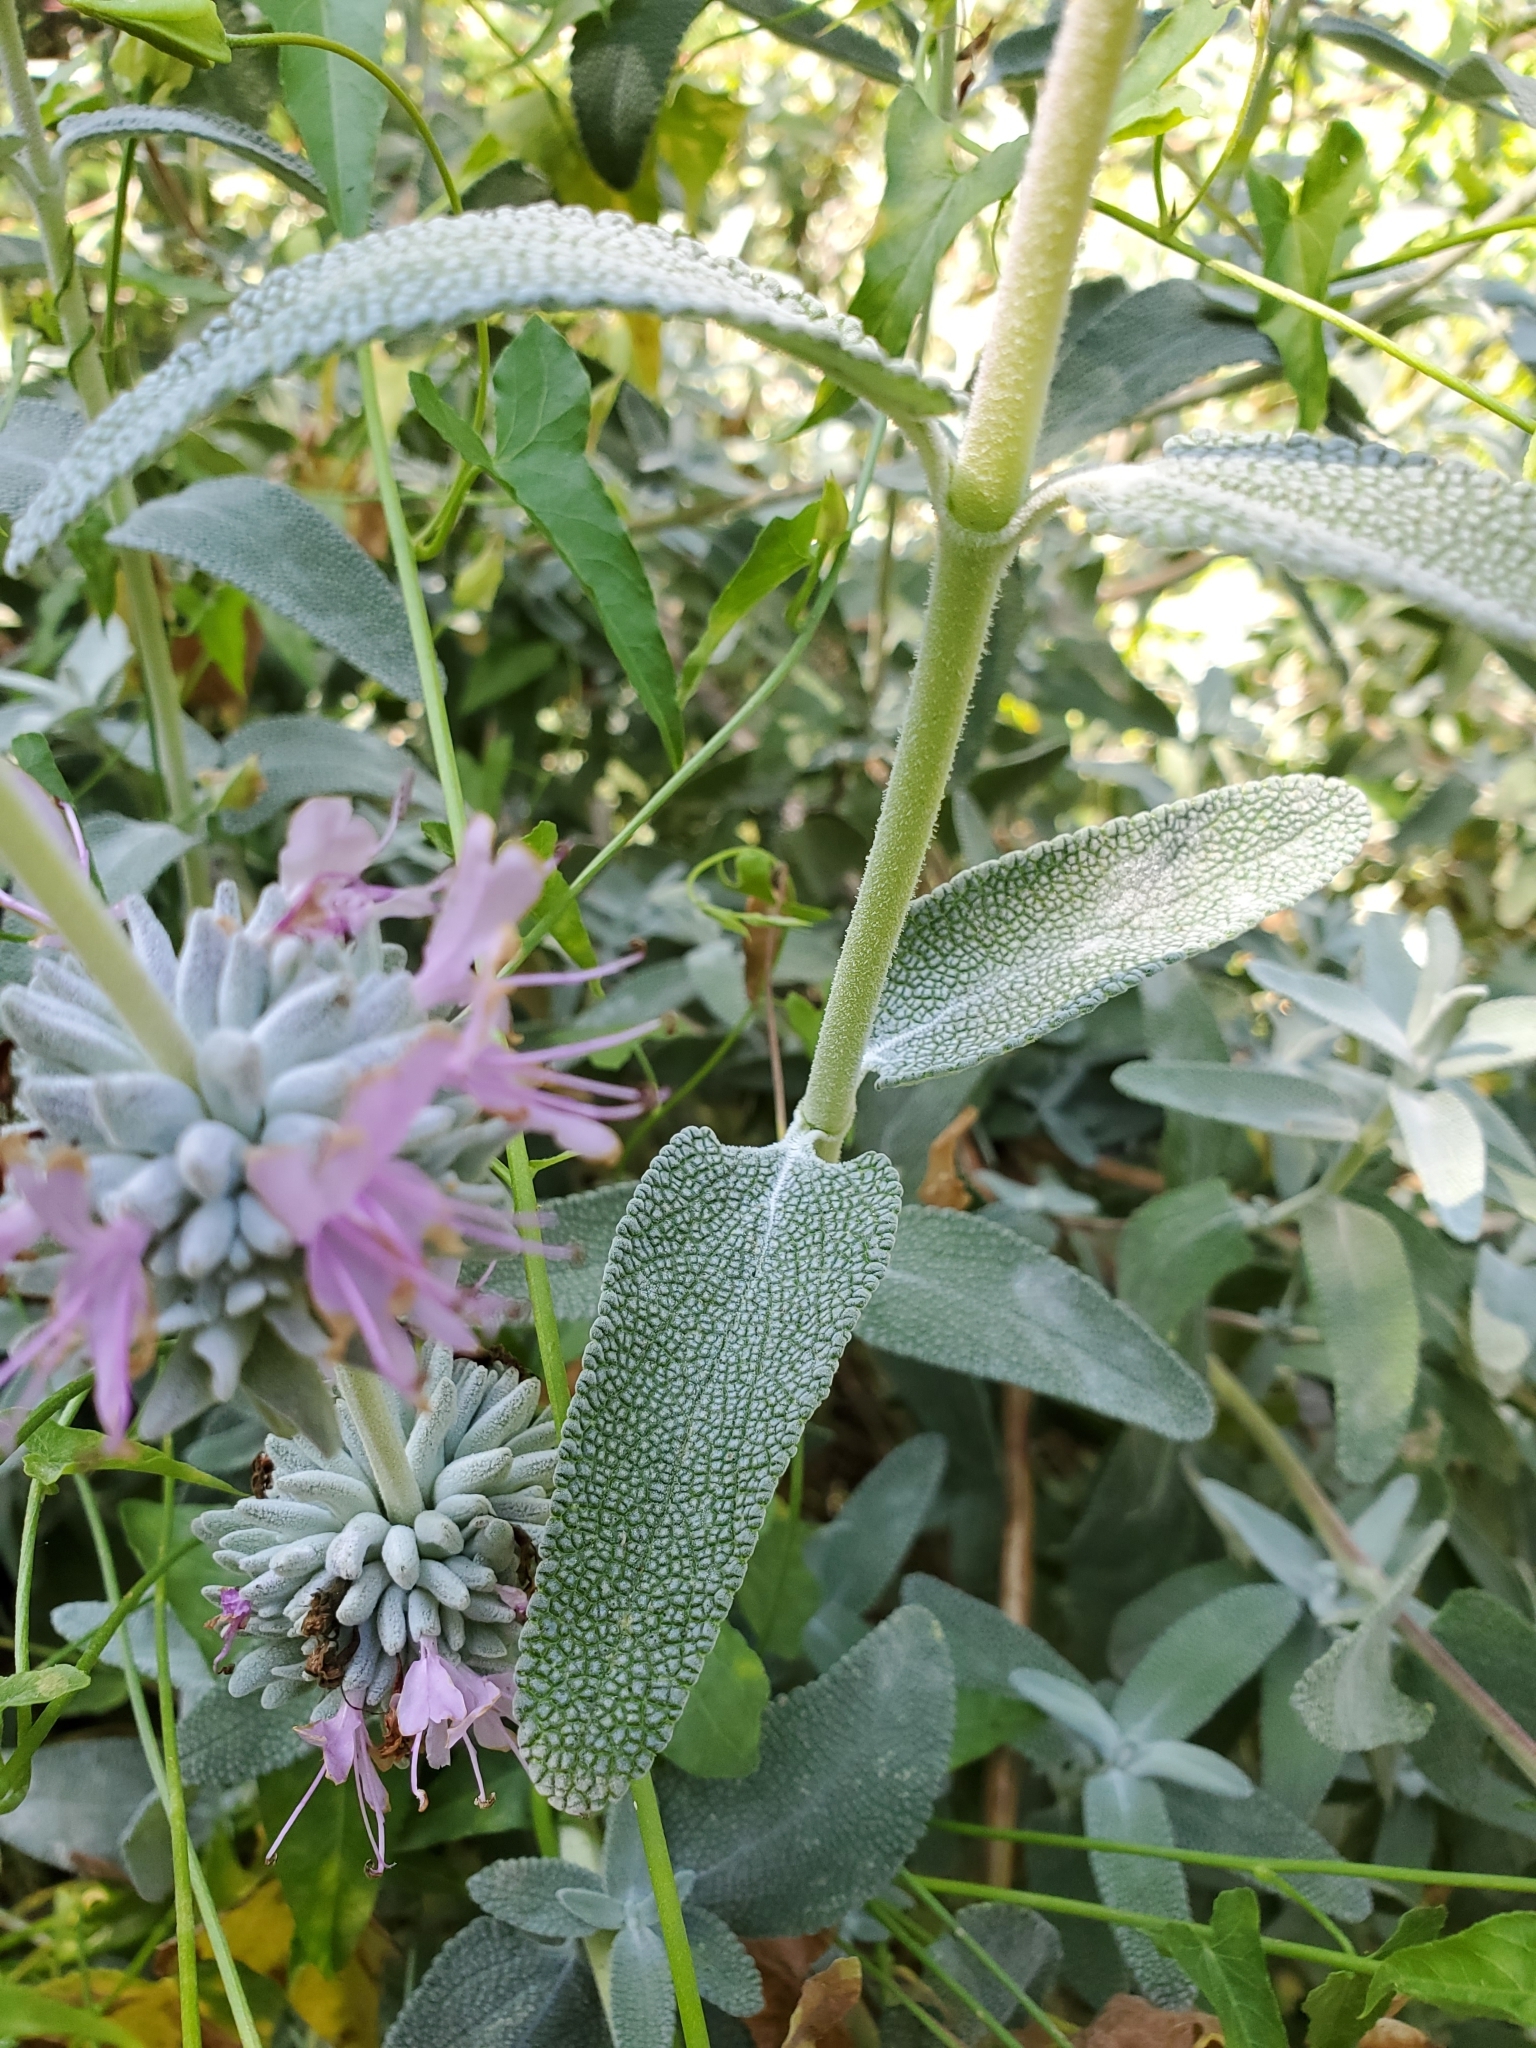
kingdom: Plantae
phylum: Tracheophyta
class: Magnoliopsida
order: Lamiales
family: Lamiaceae
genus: Salvia
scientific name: Salvia leucophylla
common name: Purple sage
